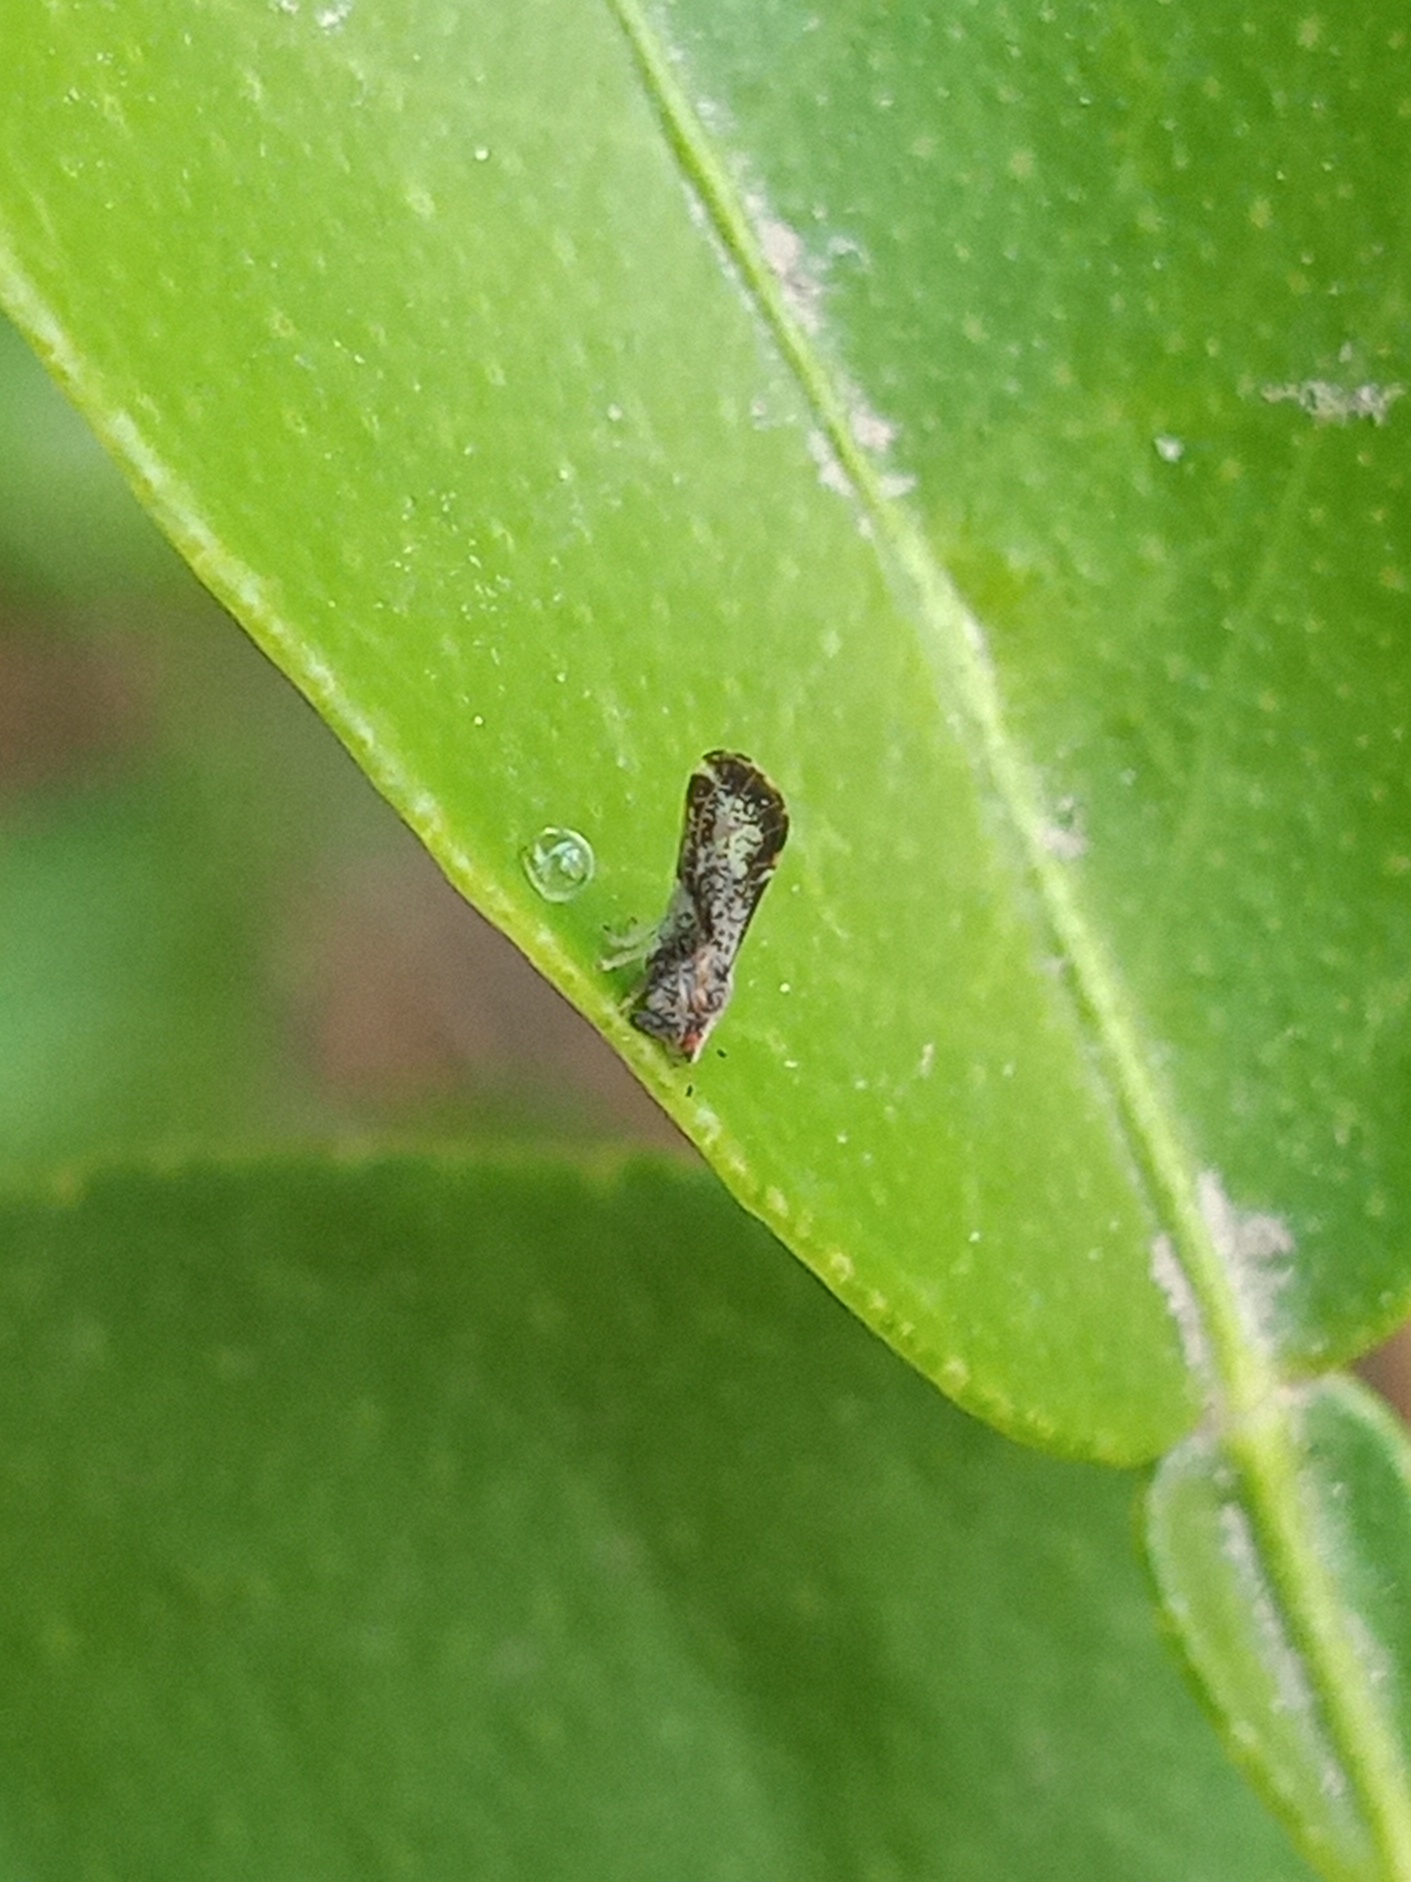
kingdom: Animalia
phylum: Arthropoda
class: Insecta
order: Hemiptera
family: Liviidae
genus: Diaphorina
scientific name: Diaphorina citri
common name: Asian citrus psyllid
